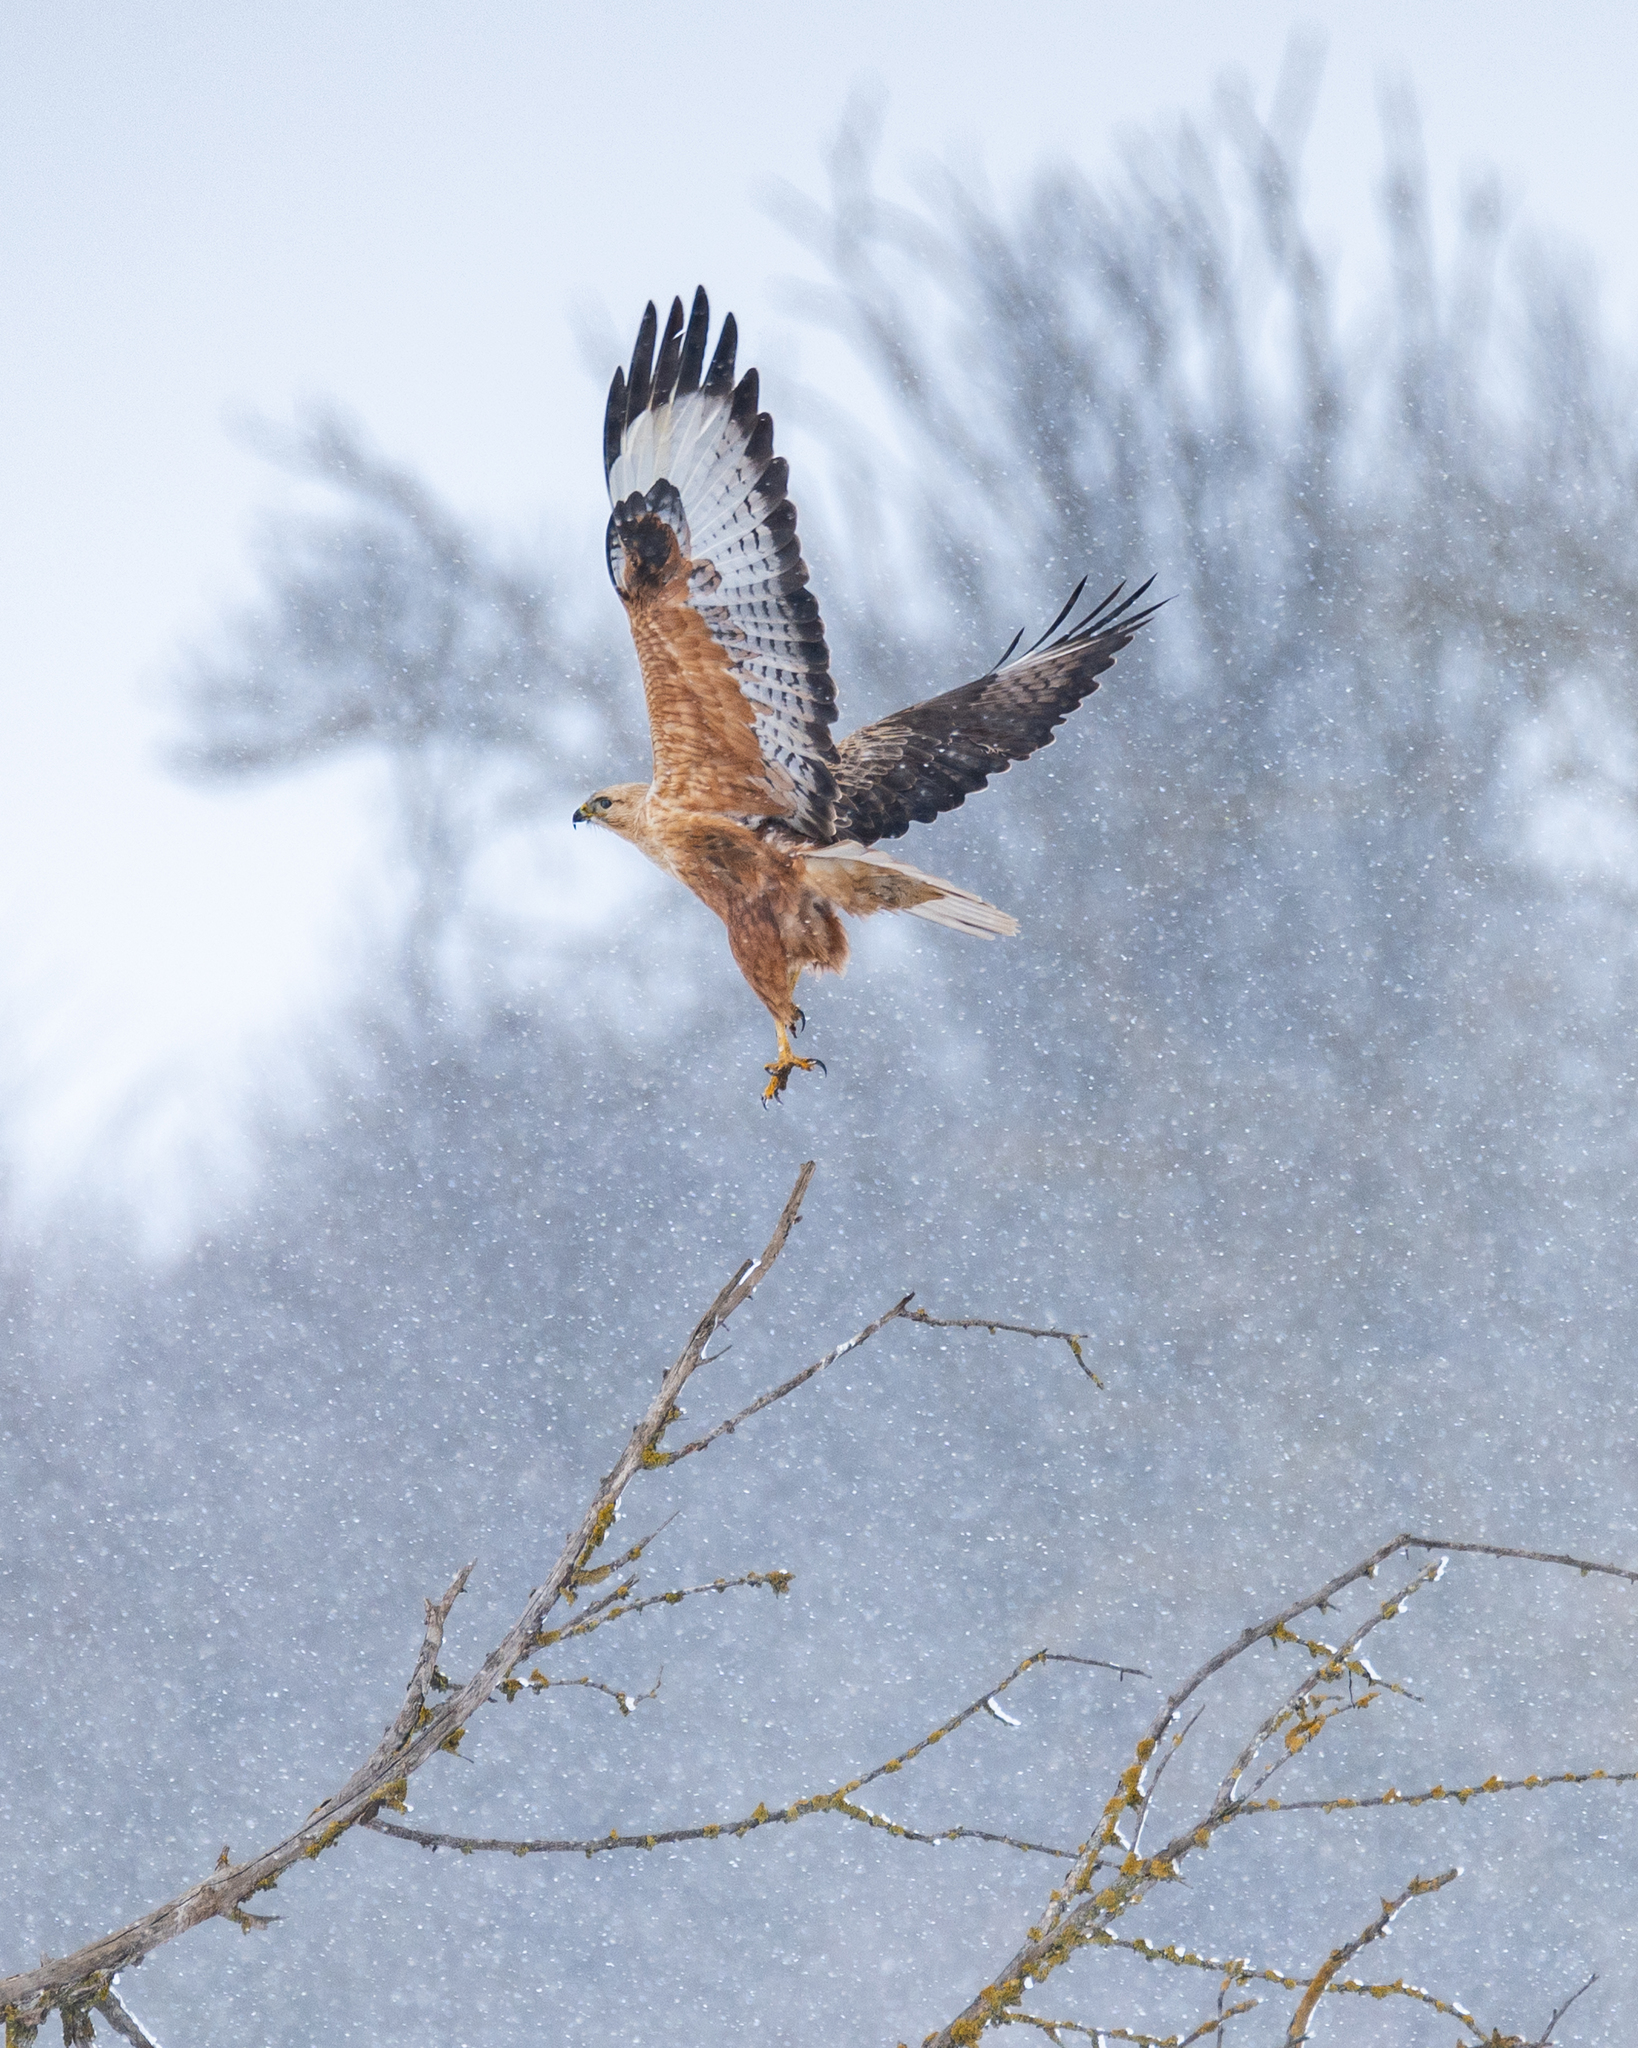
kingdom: Animalia
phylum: Chordata
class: Aves
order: Accipitriformes
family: Accipitridae
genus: Buteo
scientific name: Buteo rufinus
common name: Long-legged buzzard
